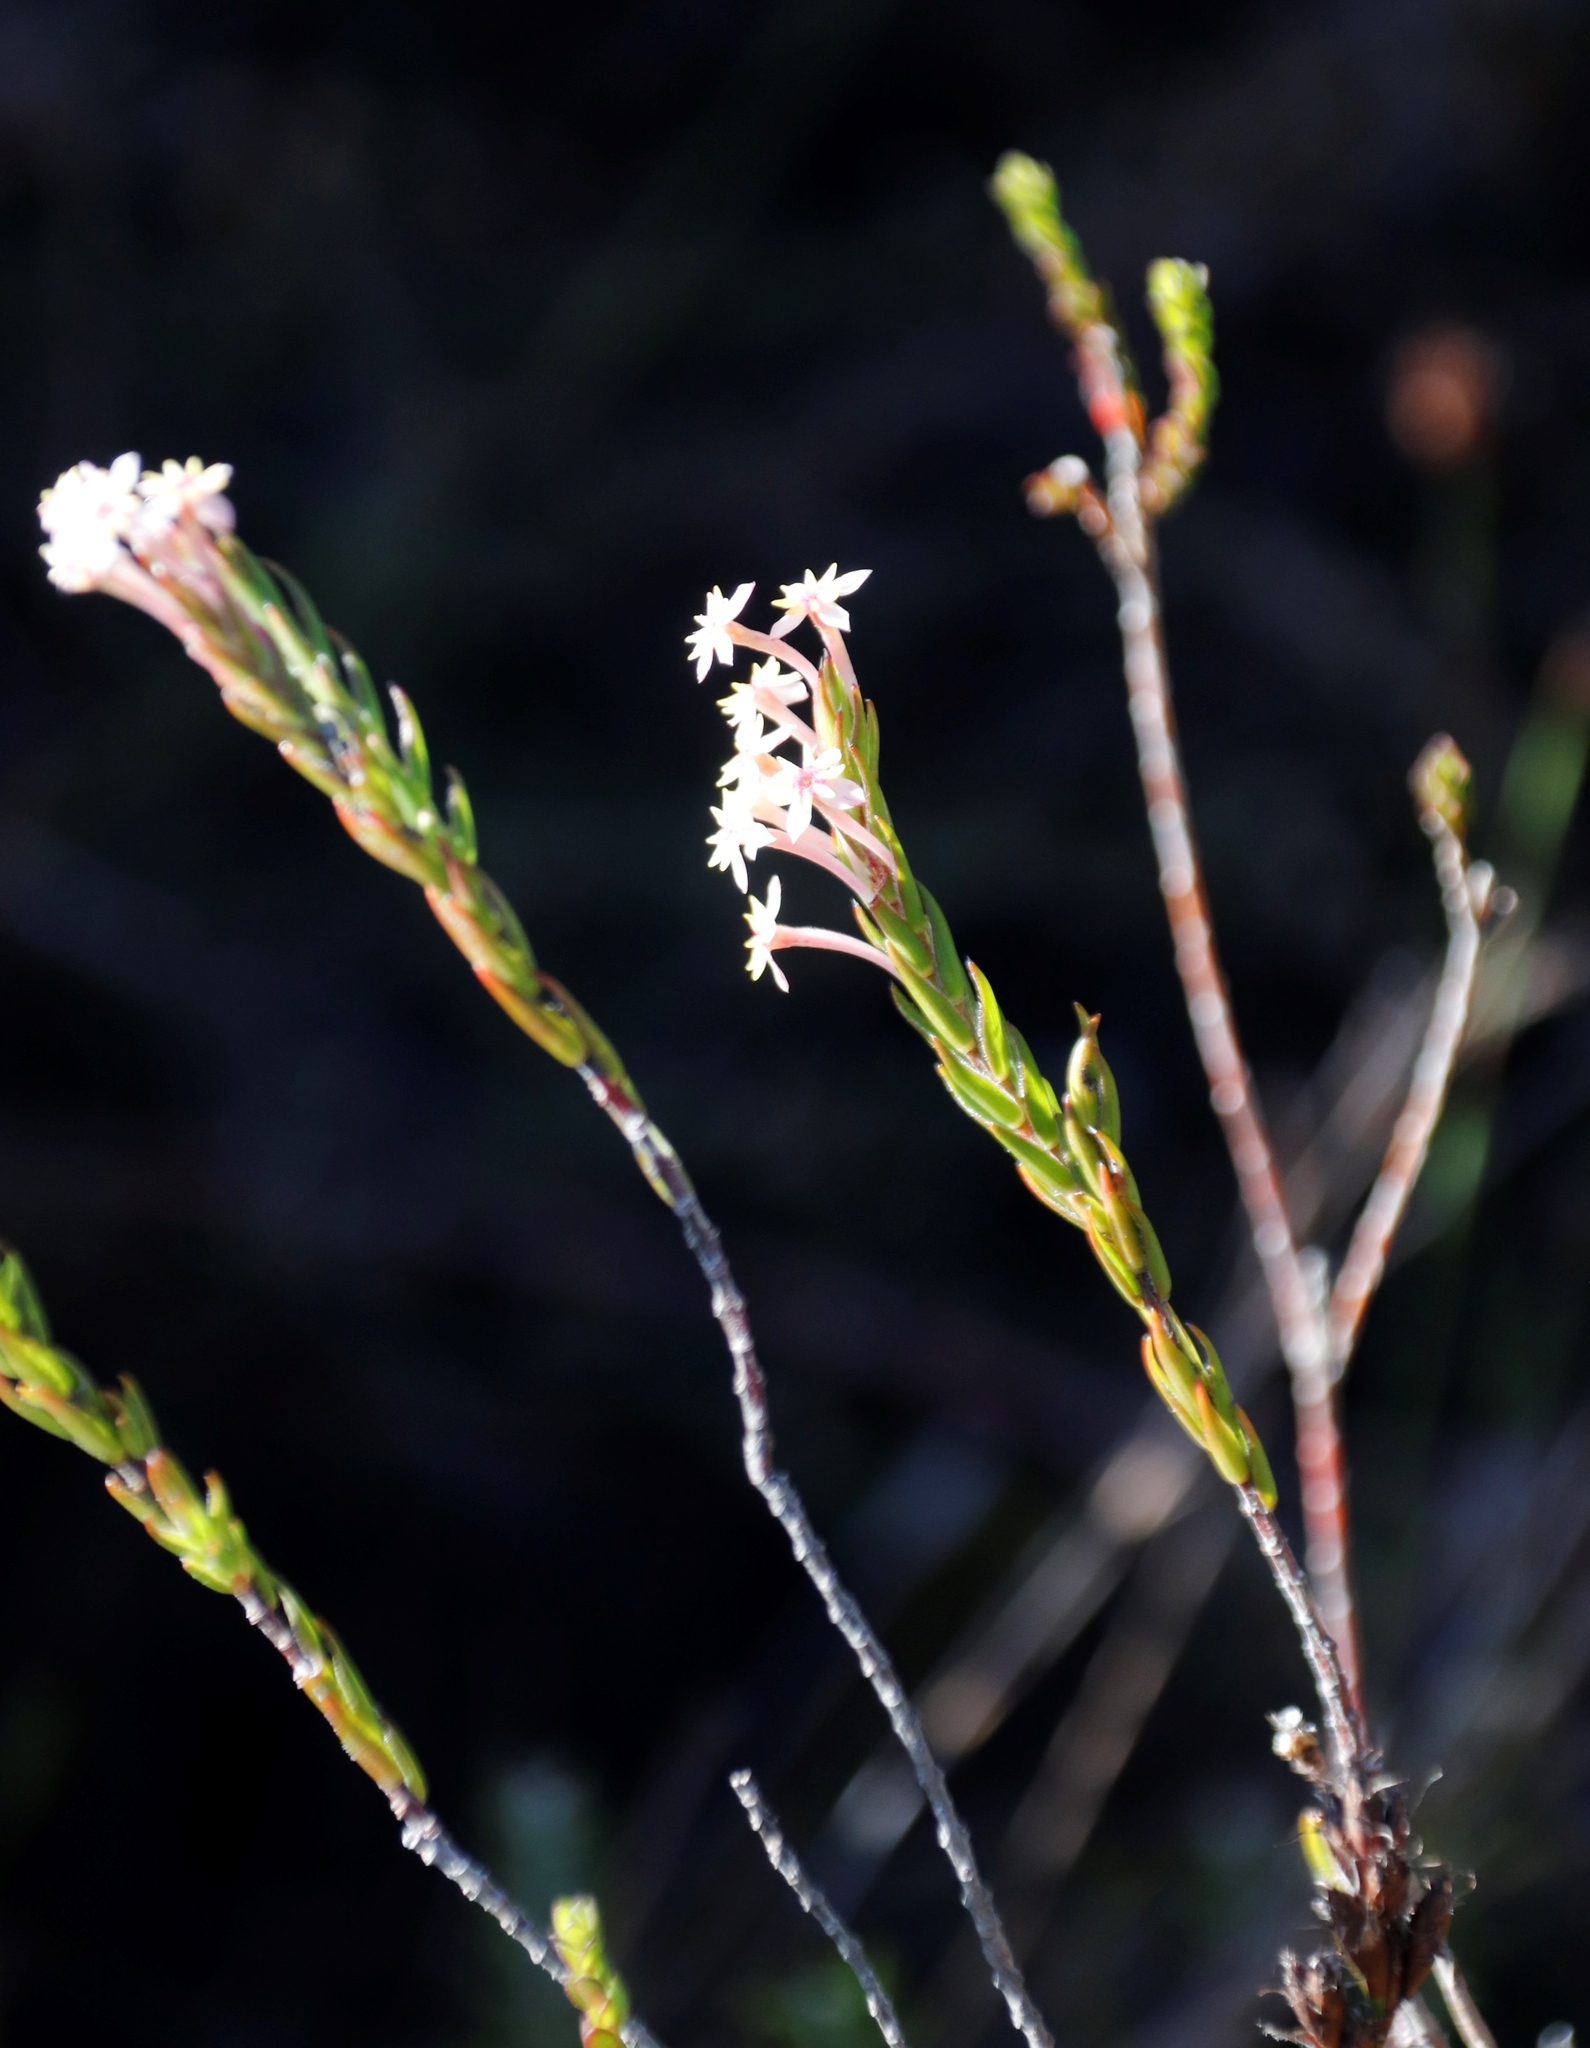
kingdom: Plantae
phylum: Tracheophyta
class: Magnoliopsida
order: Malvales
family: Thymelaeaceae
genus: Struthiola
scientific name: Struthiola ciliata
